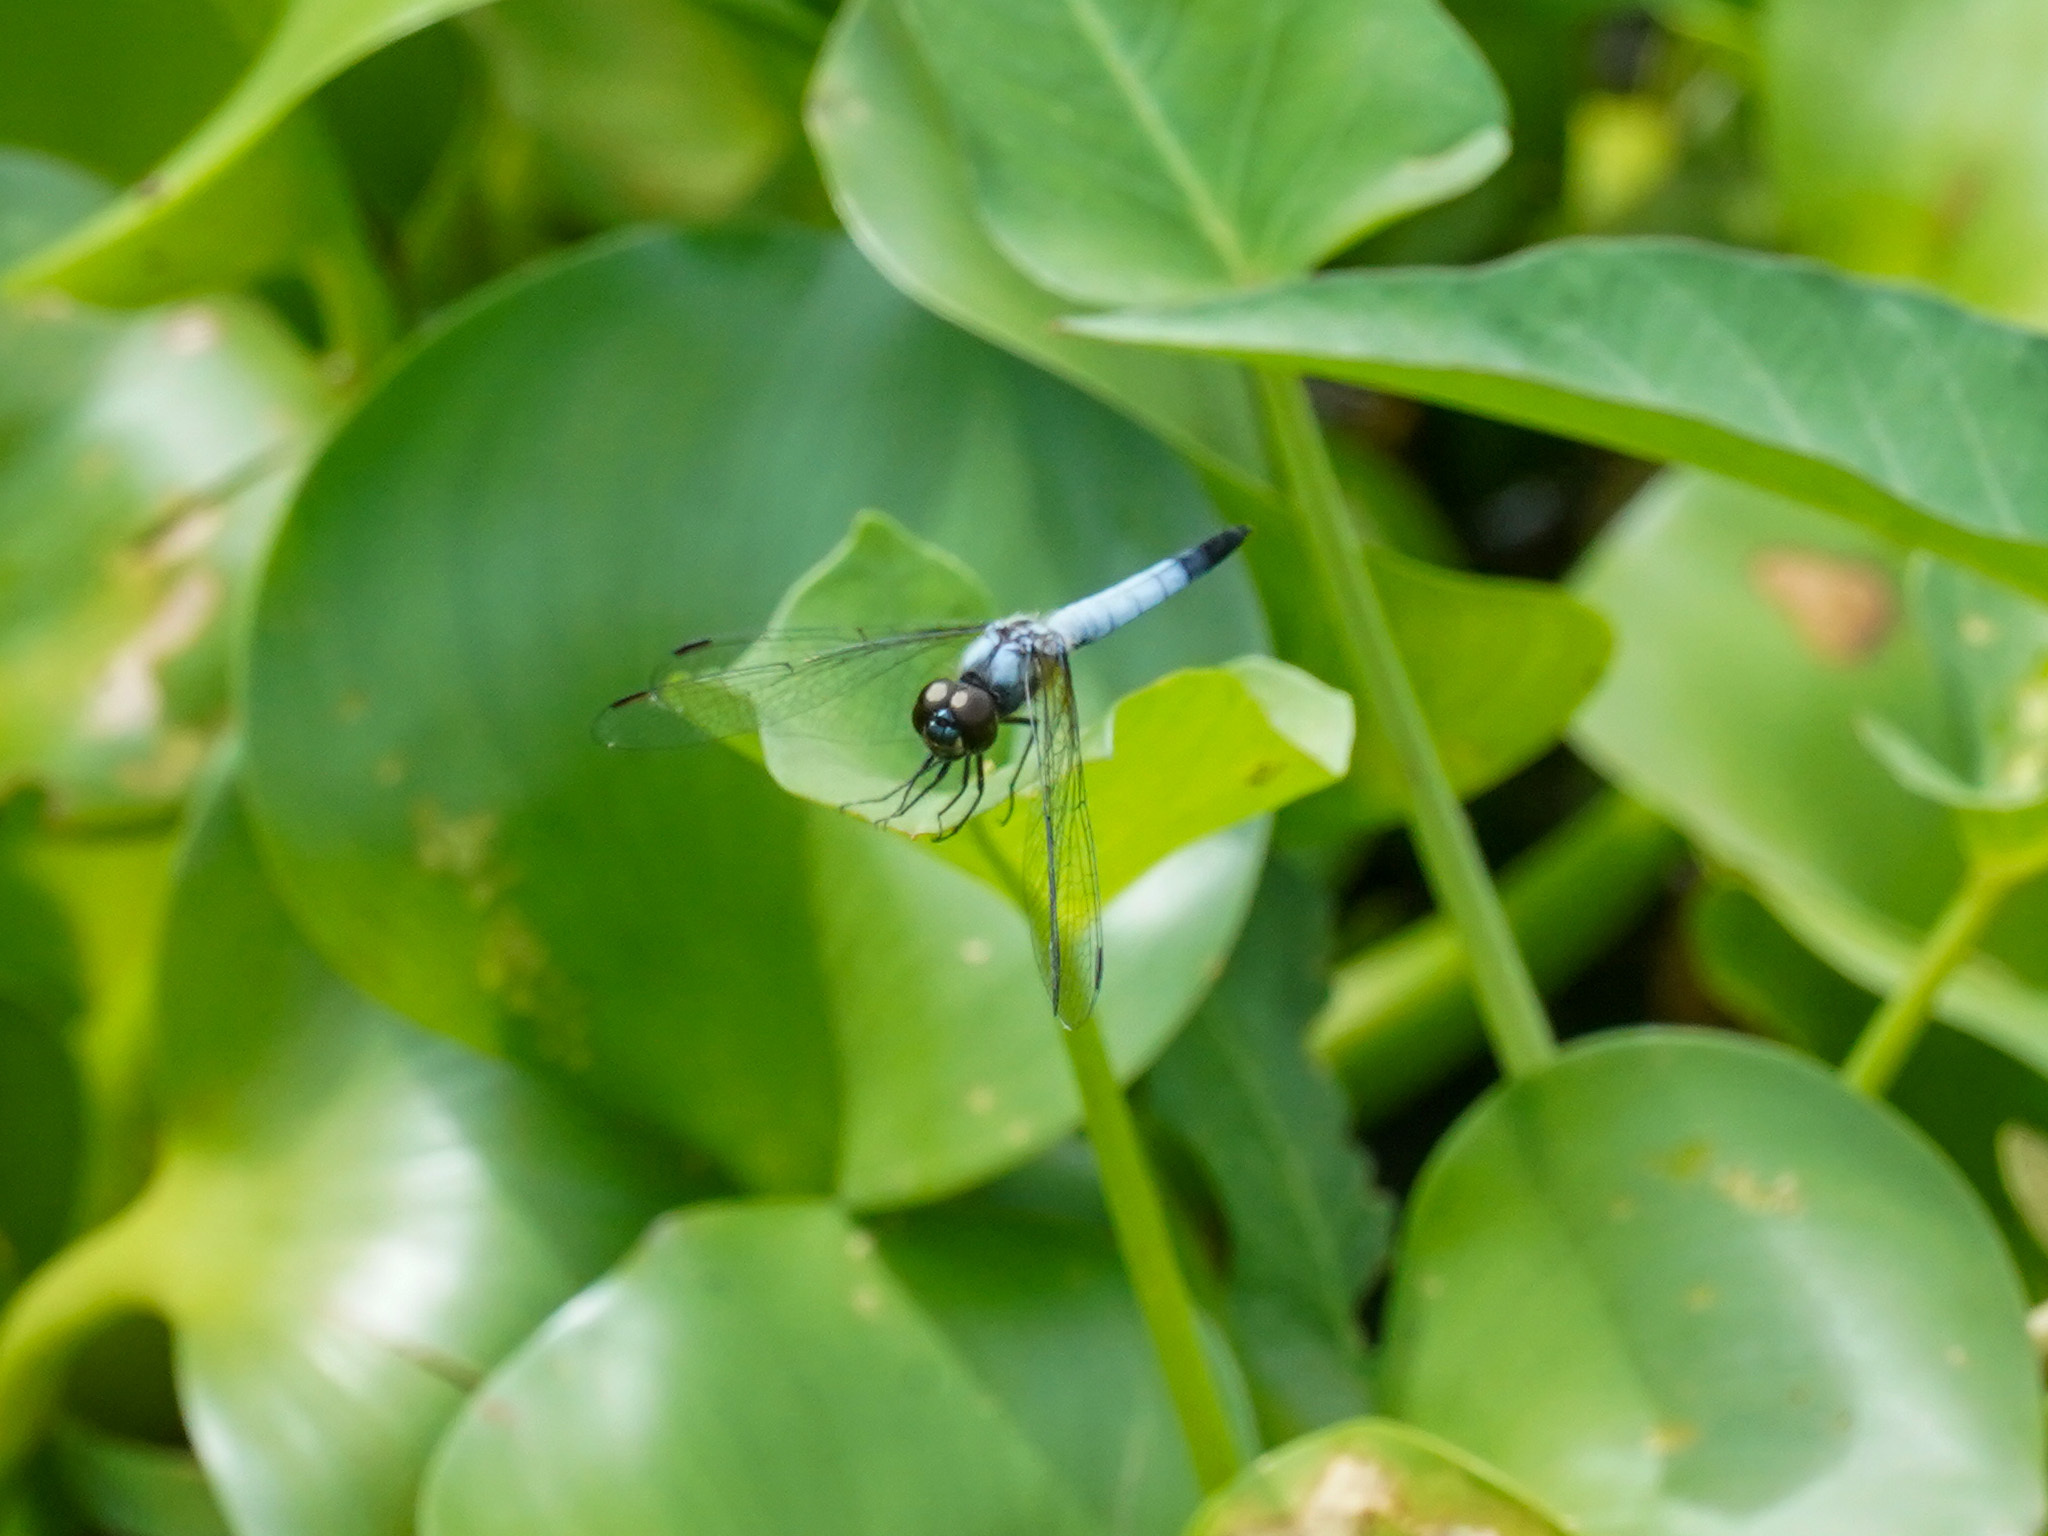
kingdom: Animalia
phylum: Arthropoda
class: Insecta
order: Odonata
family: Libellulidae
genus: Aethriamanta
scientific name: Aethriamanta gracilis
